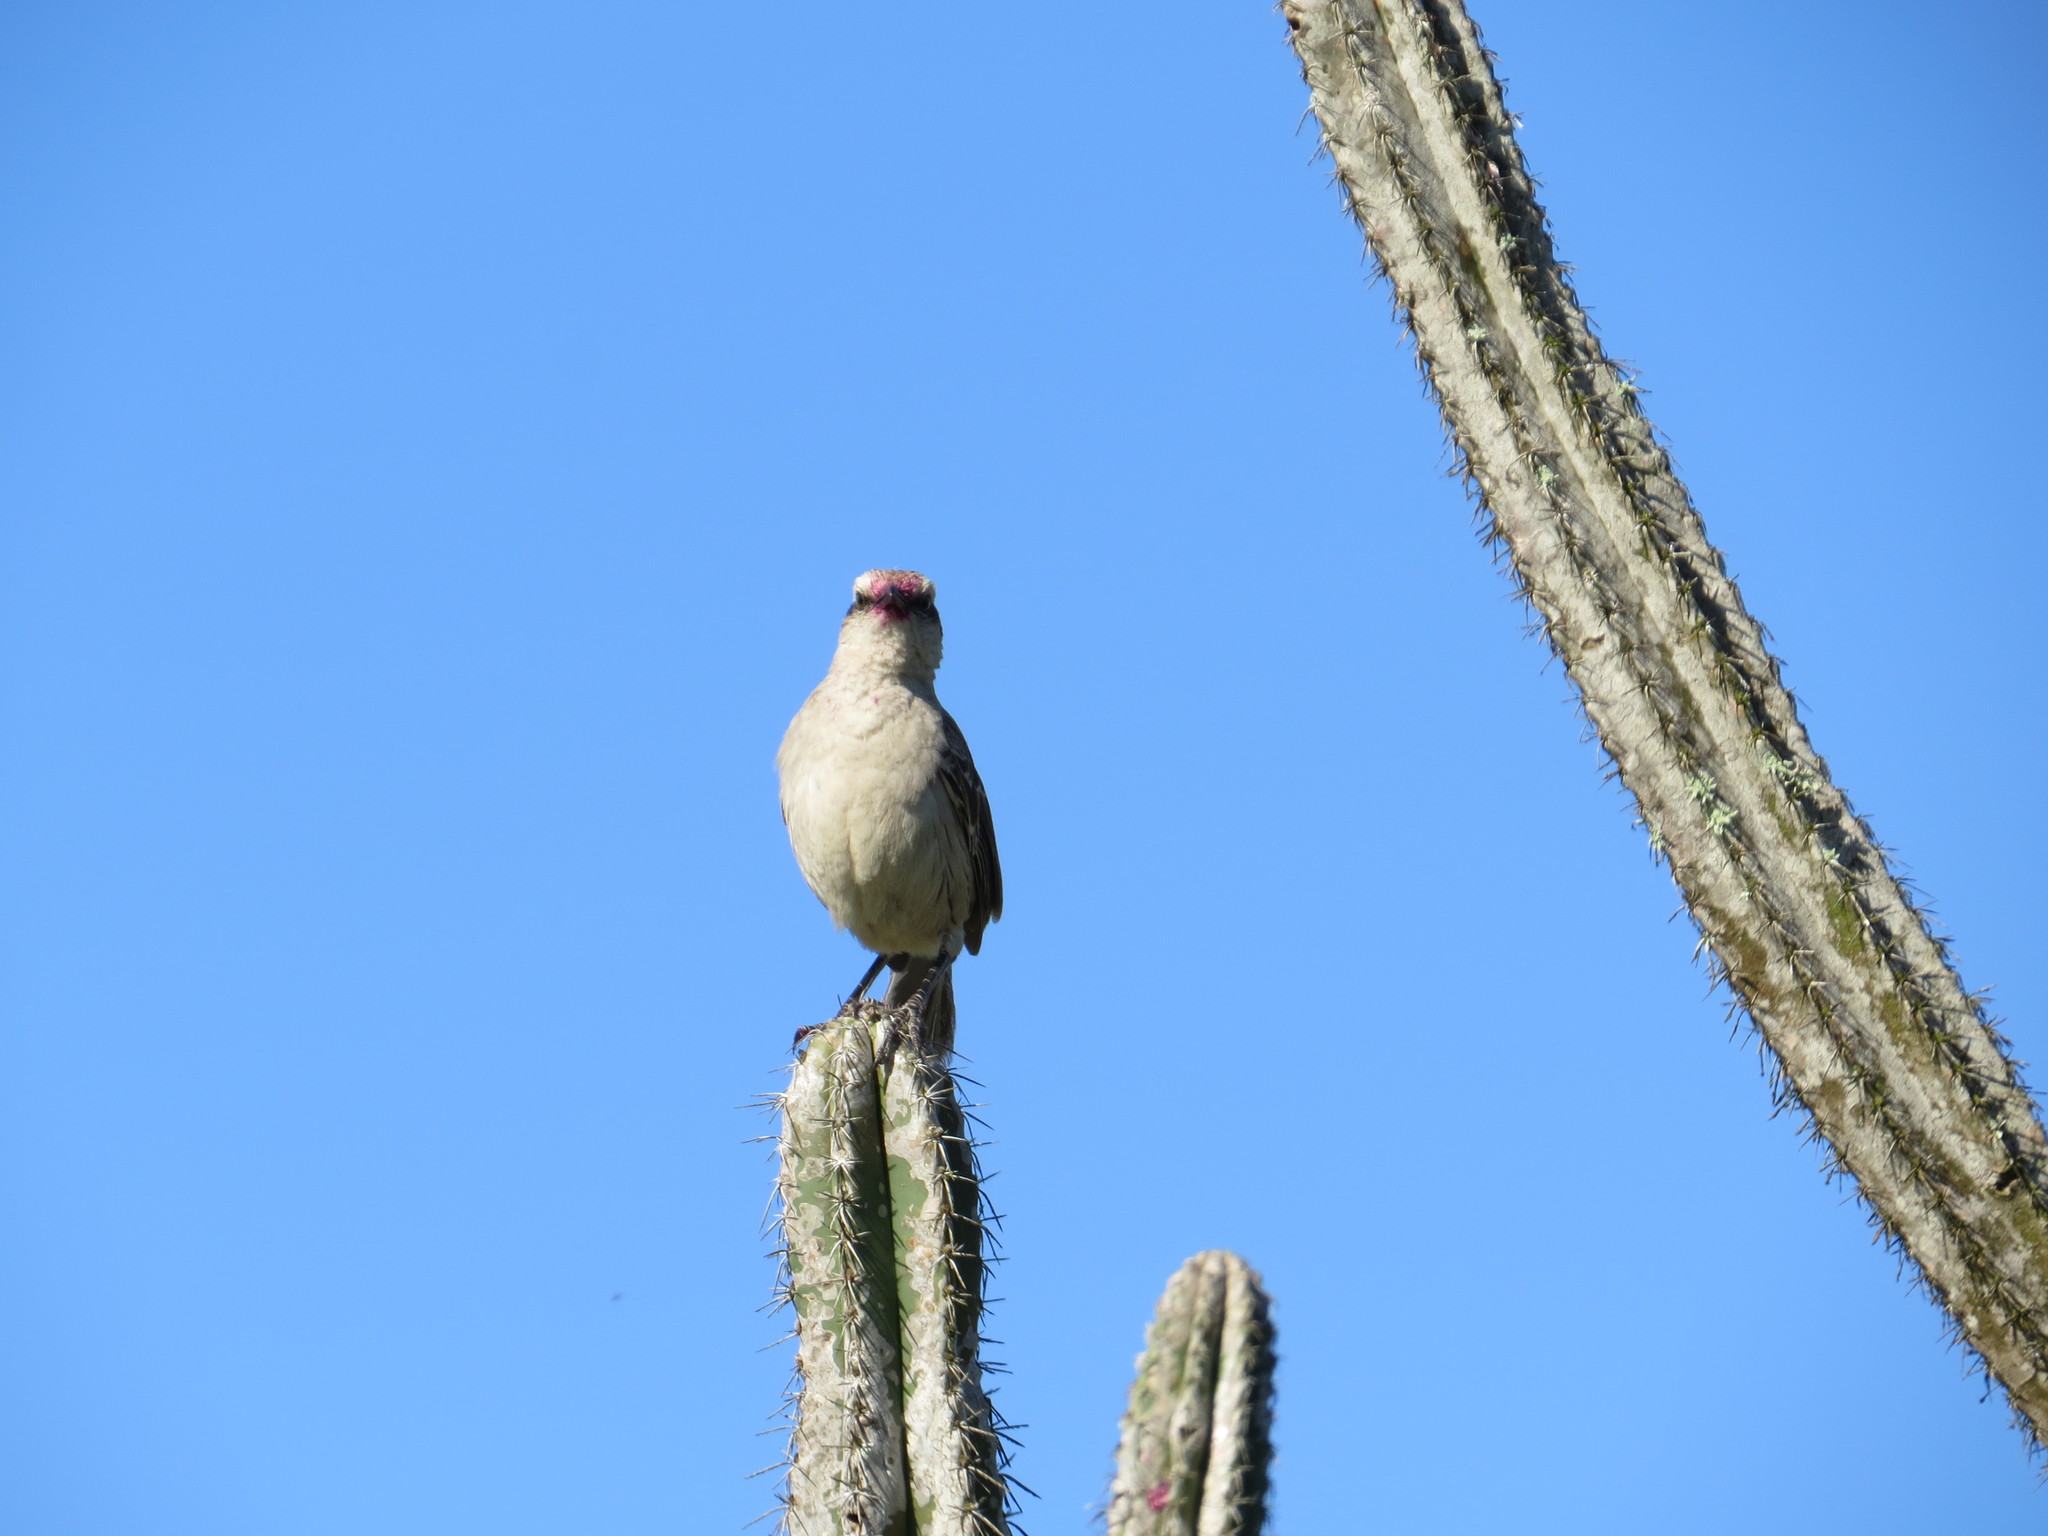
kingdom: Animalia
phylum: Chordata
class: Aves
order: Passeriformes
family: Mimidae
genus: Mimus
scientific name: Mimus saturninus
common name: Chalk-browed mockingbird
